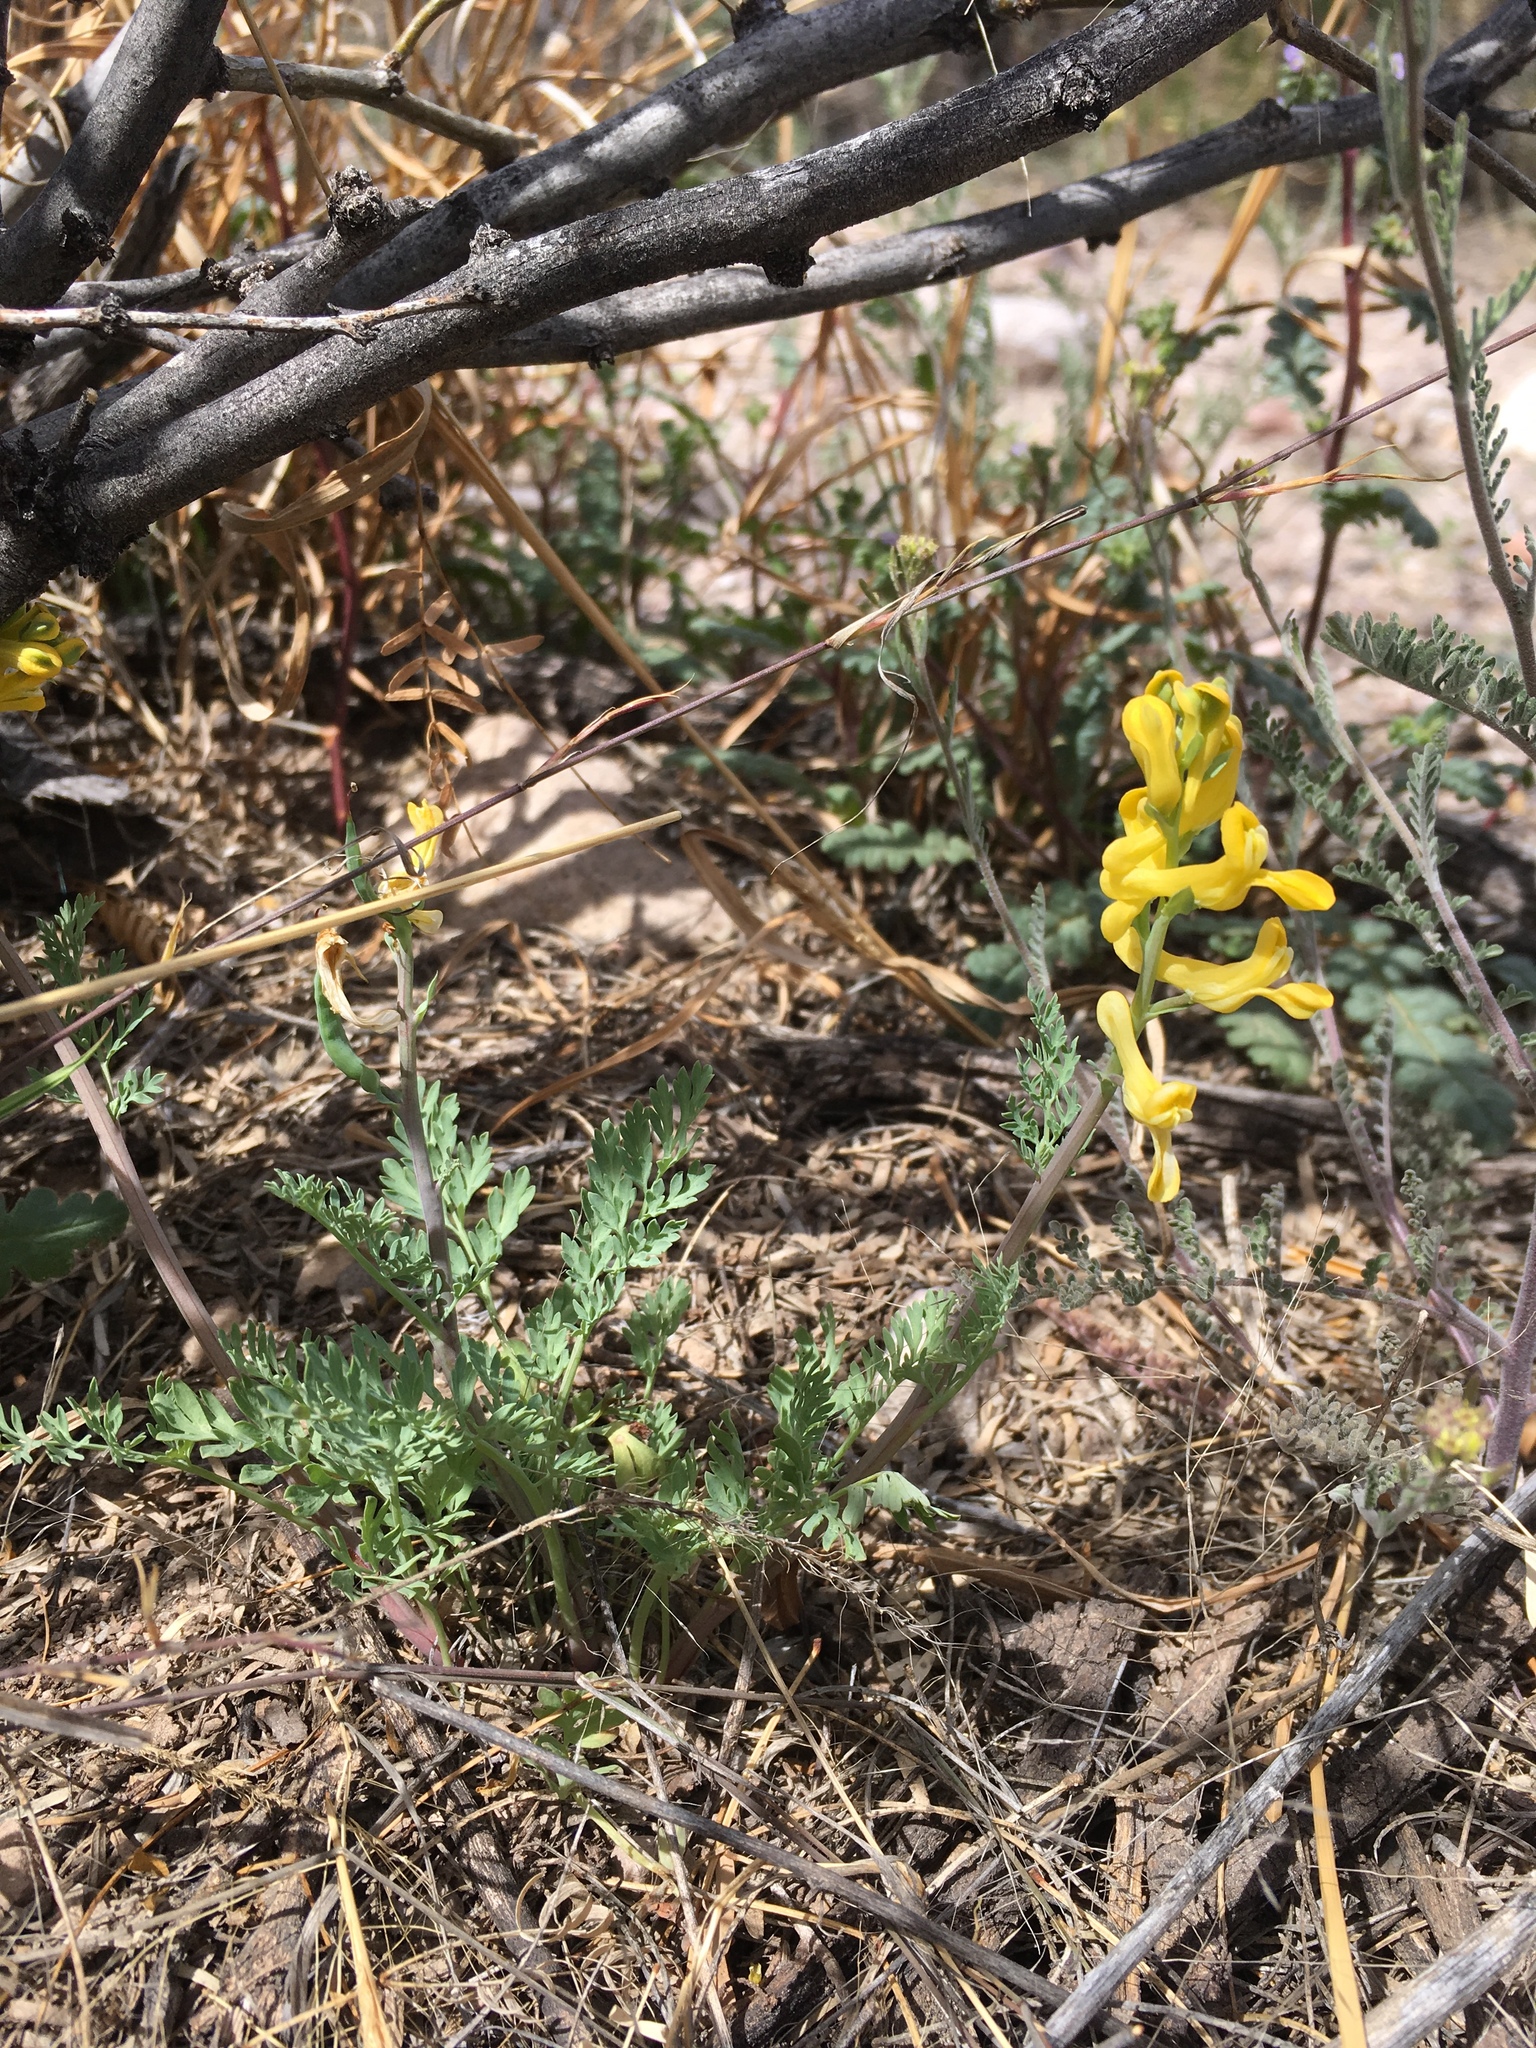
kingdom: Plantae
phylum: Tracheophyta
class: Magnoliopsida
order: Ranunculales
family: Papaveraceae
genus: Corydalis
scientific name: Corydalis aurea
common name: Golden corydalis
